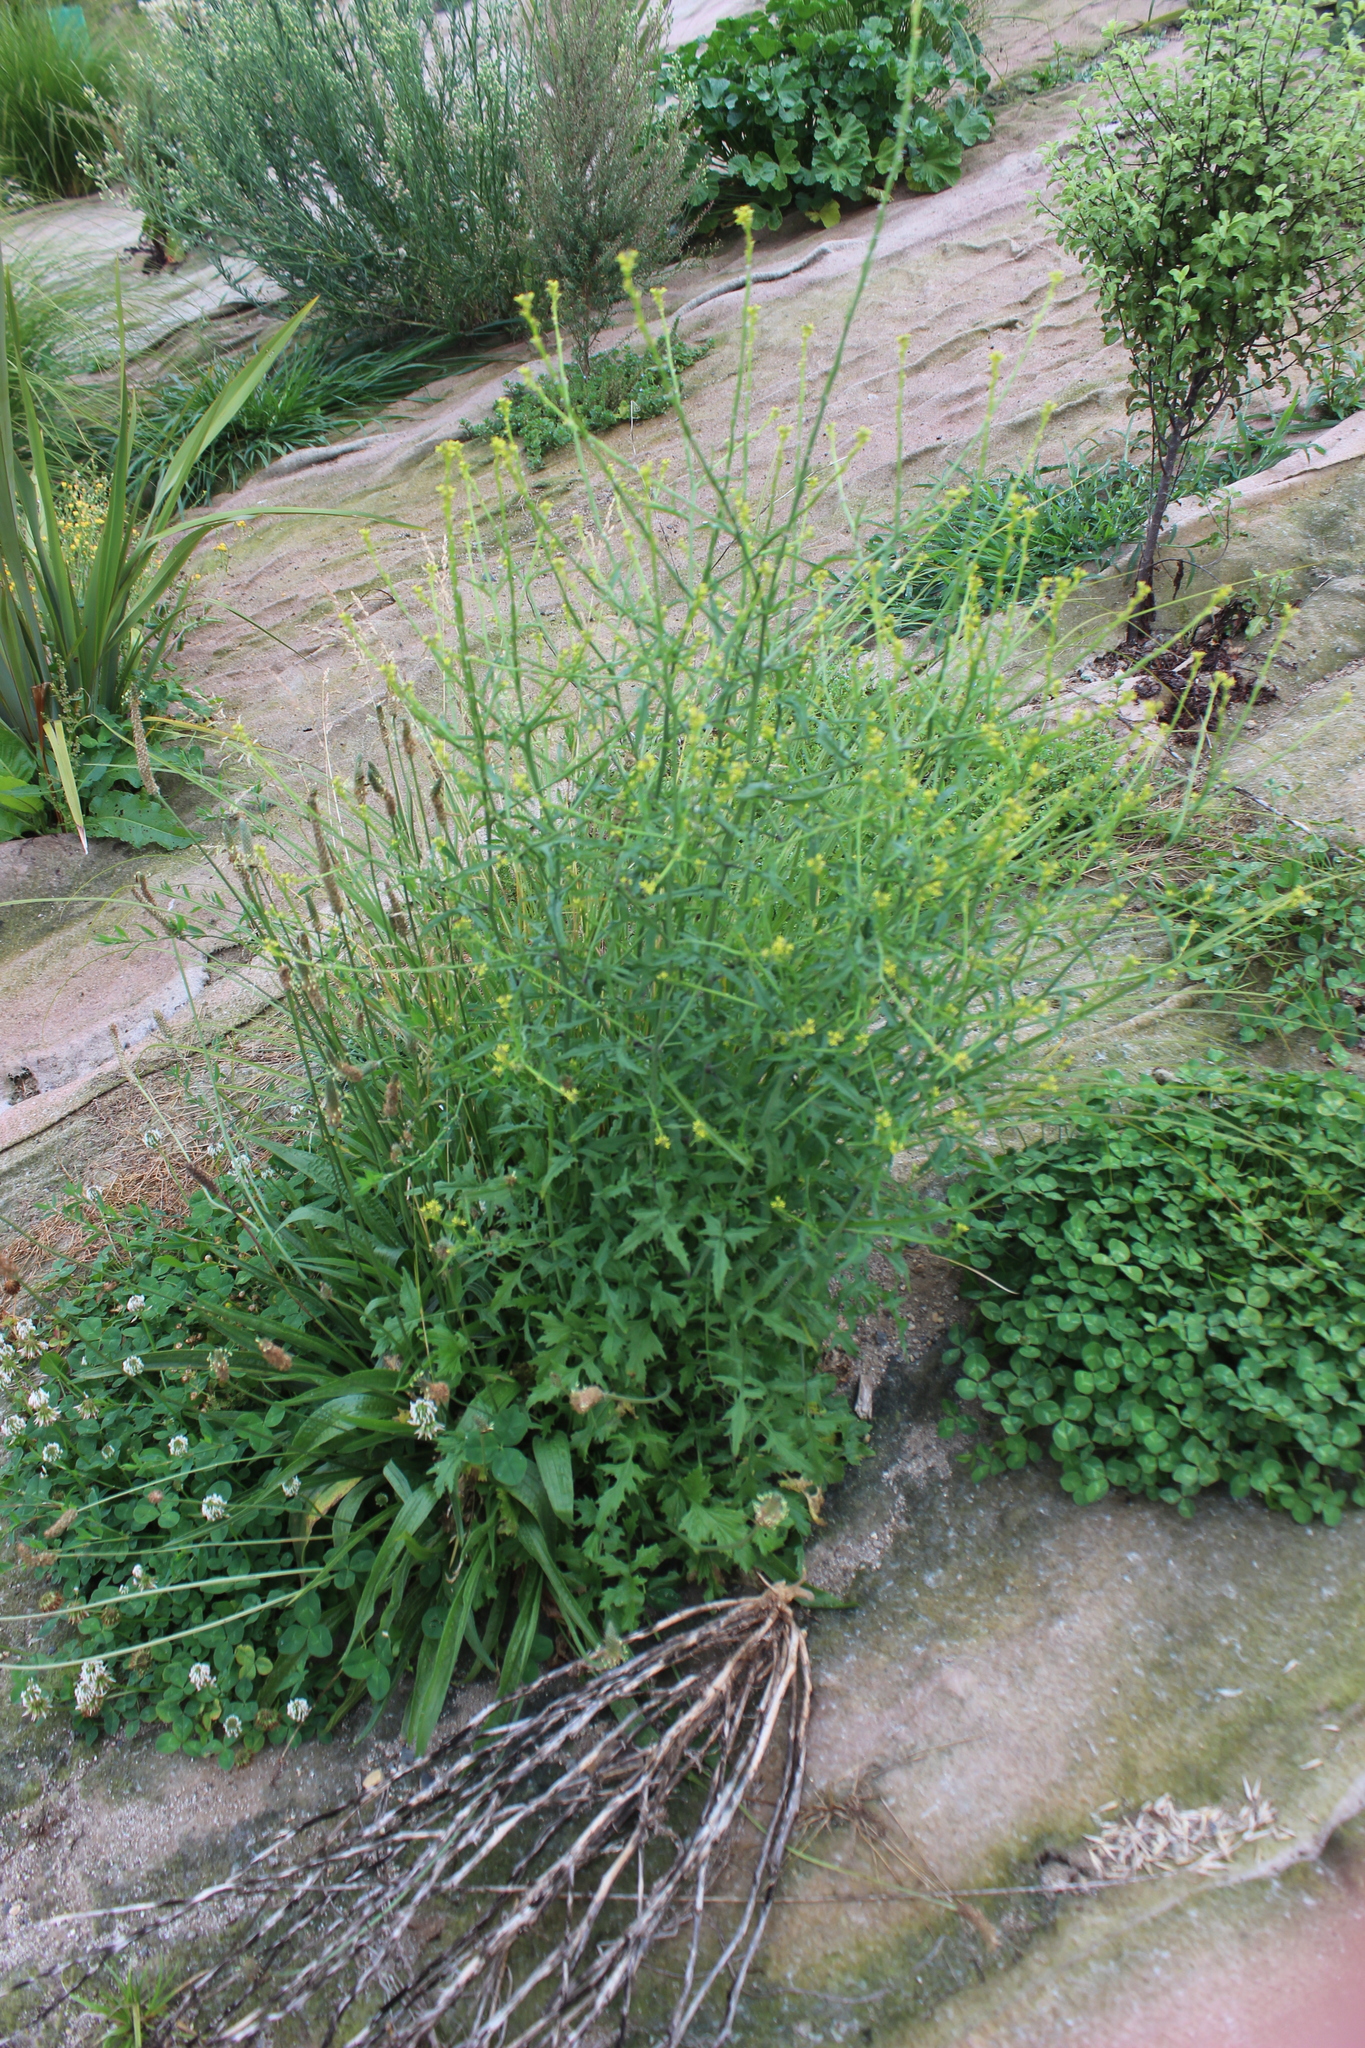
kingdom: Plantae
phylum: Tracheophyta
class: Magnoliopsida
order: Brassicales
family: Brassicaceae
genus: Sisymbrium
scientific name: Sisymbrium officinale
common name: Hedge mustard
